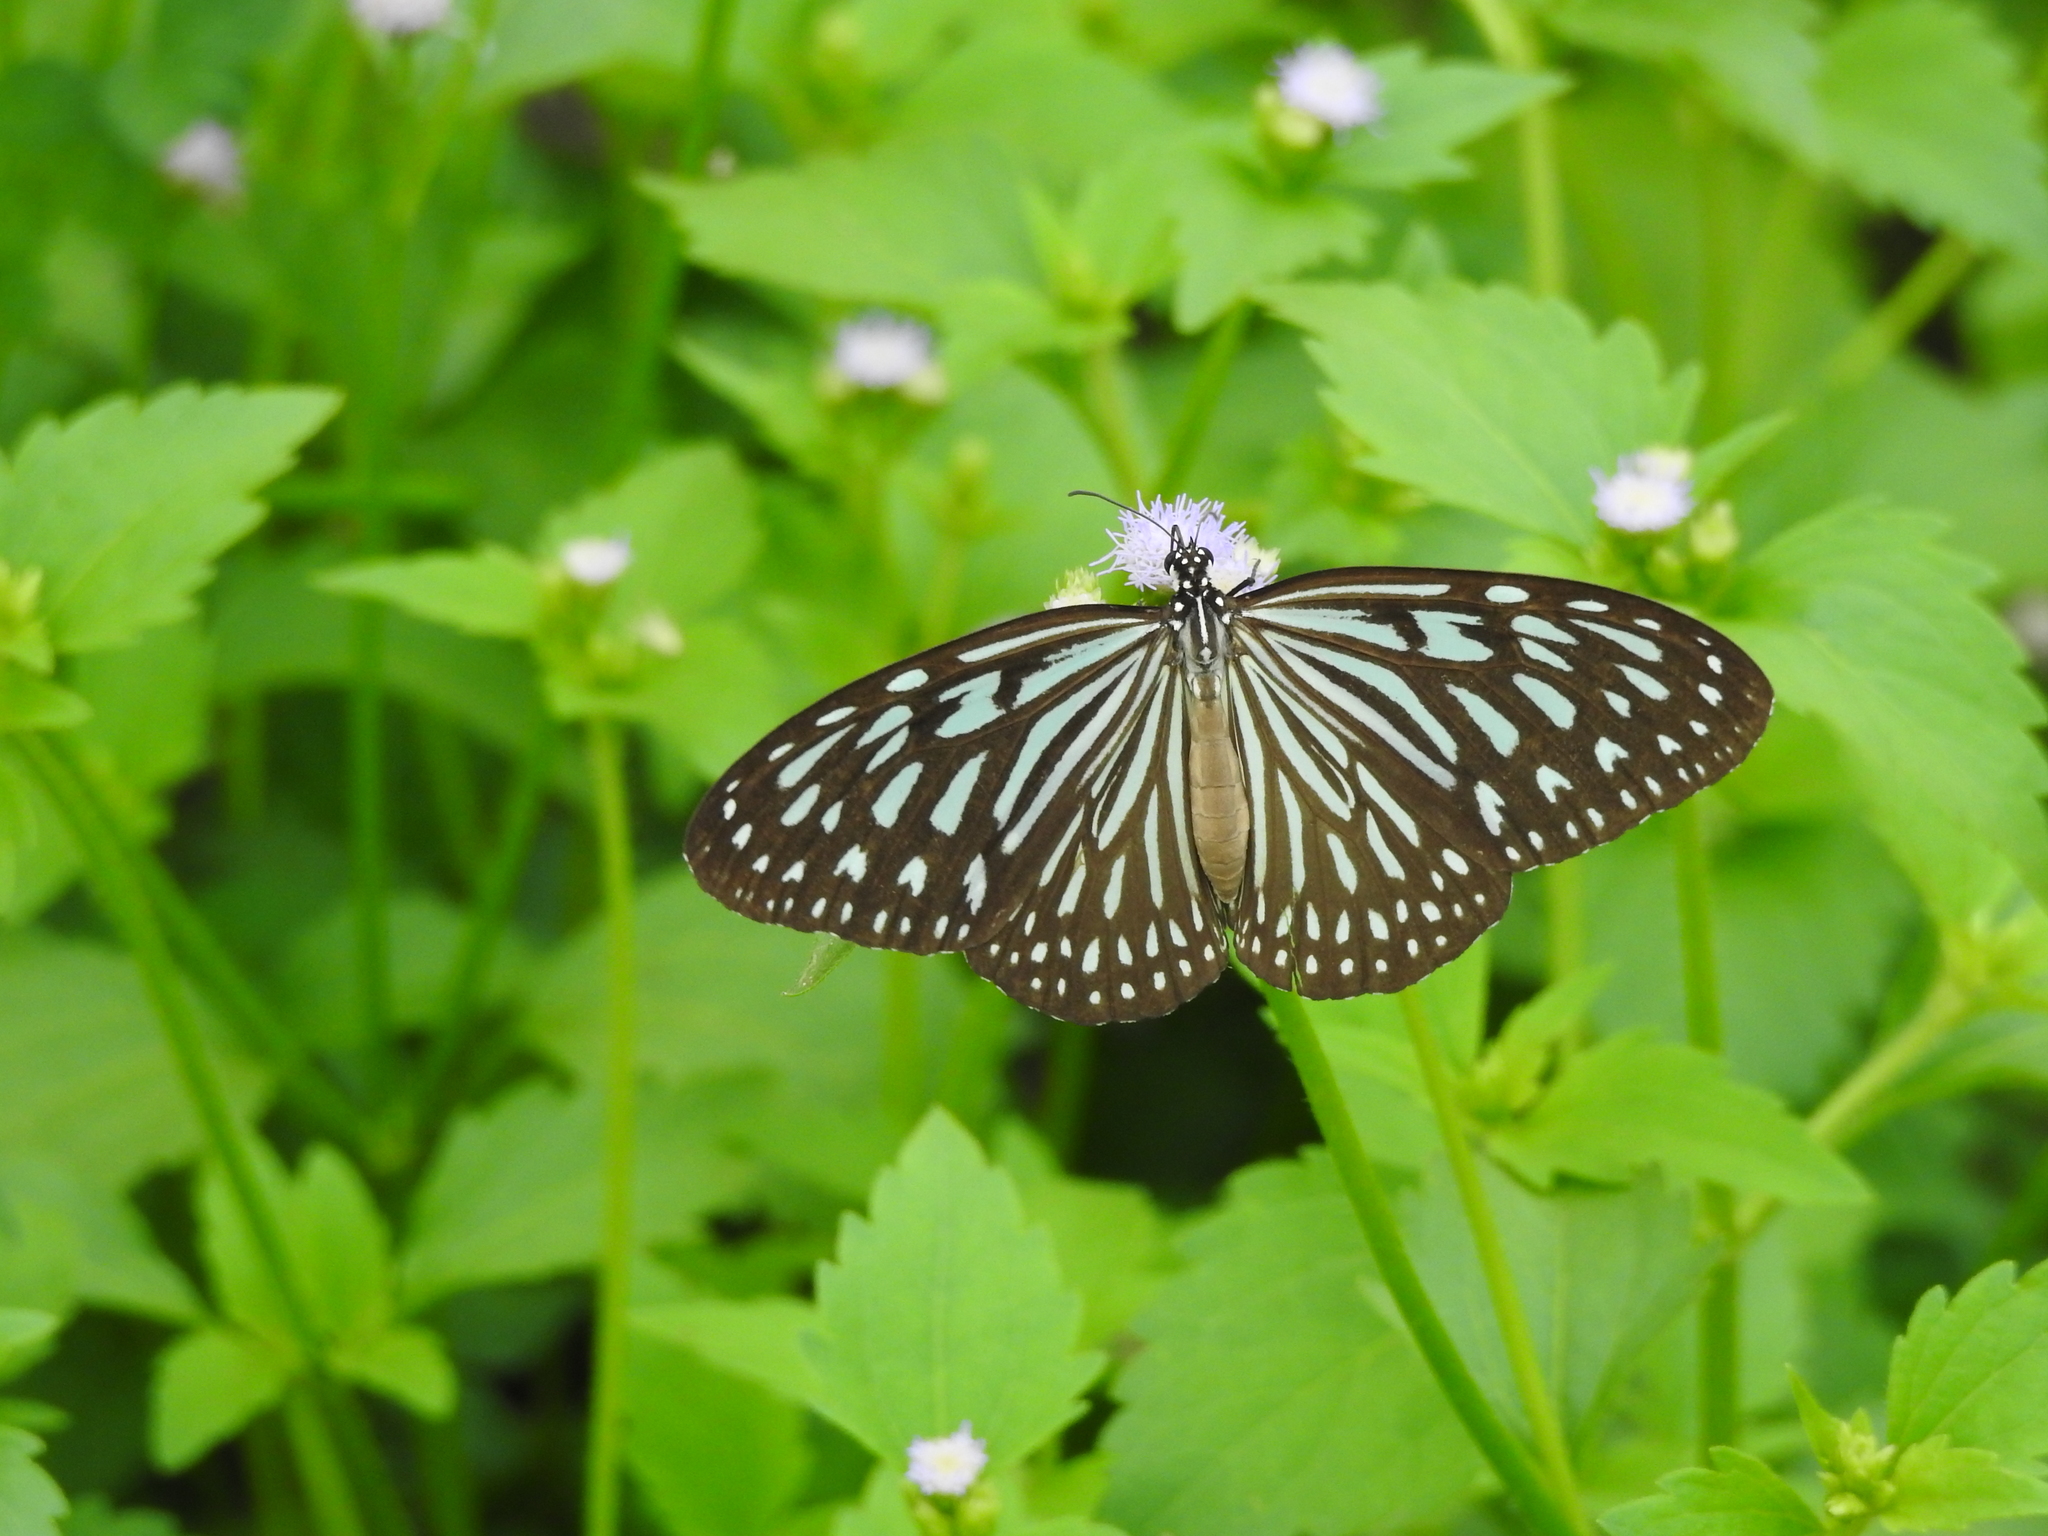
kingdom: Animalia
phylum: Arthropoda
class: Insecta
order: Lepidoptera
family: Nymphalidae
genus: Ideopsis
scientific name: Ideopsis vulgaris
